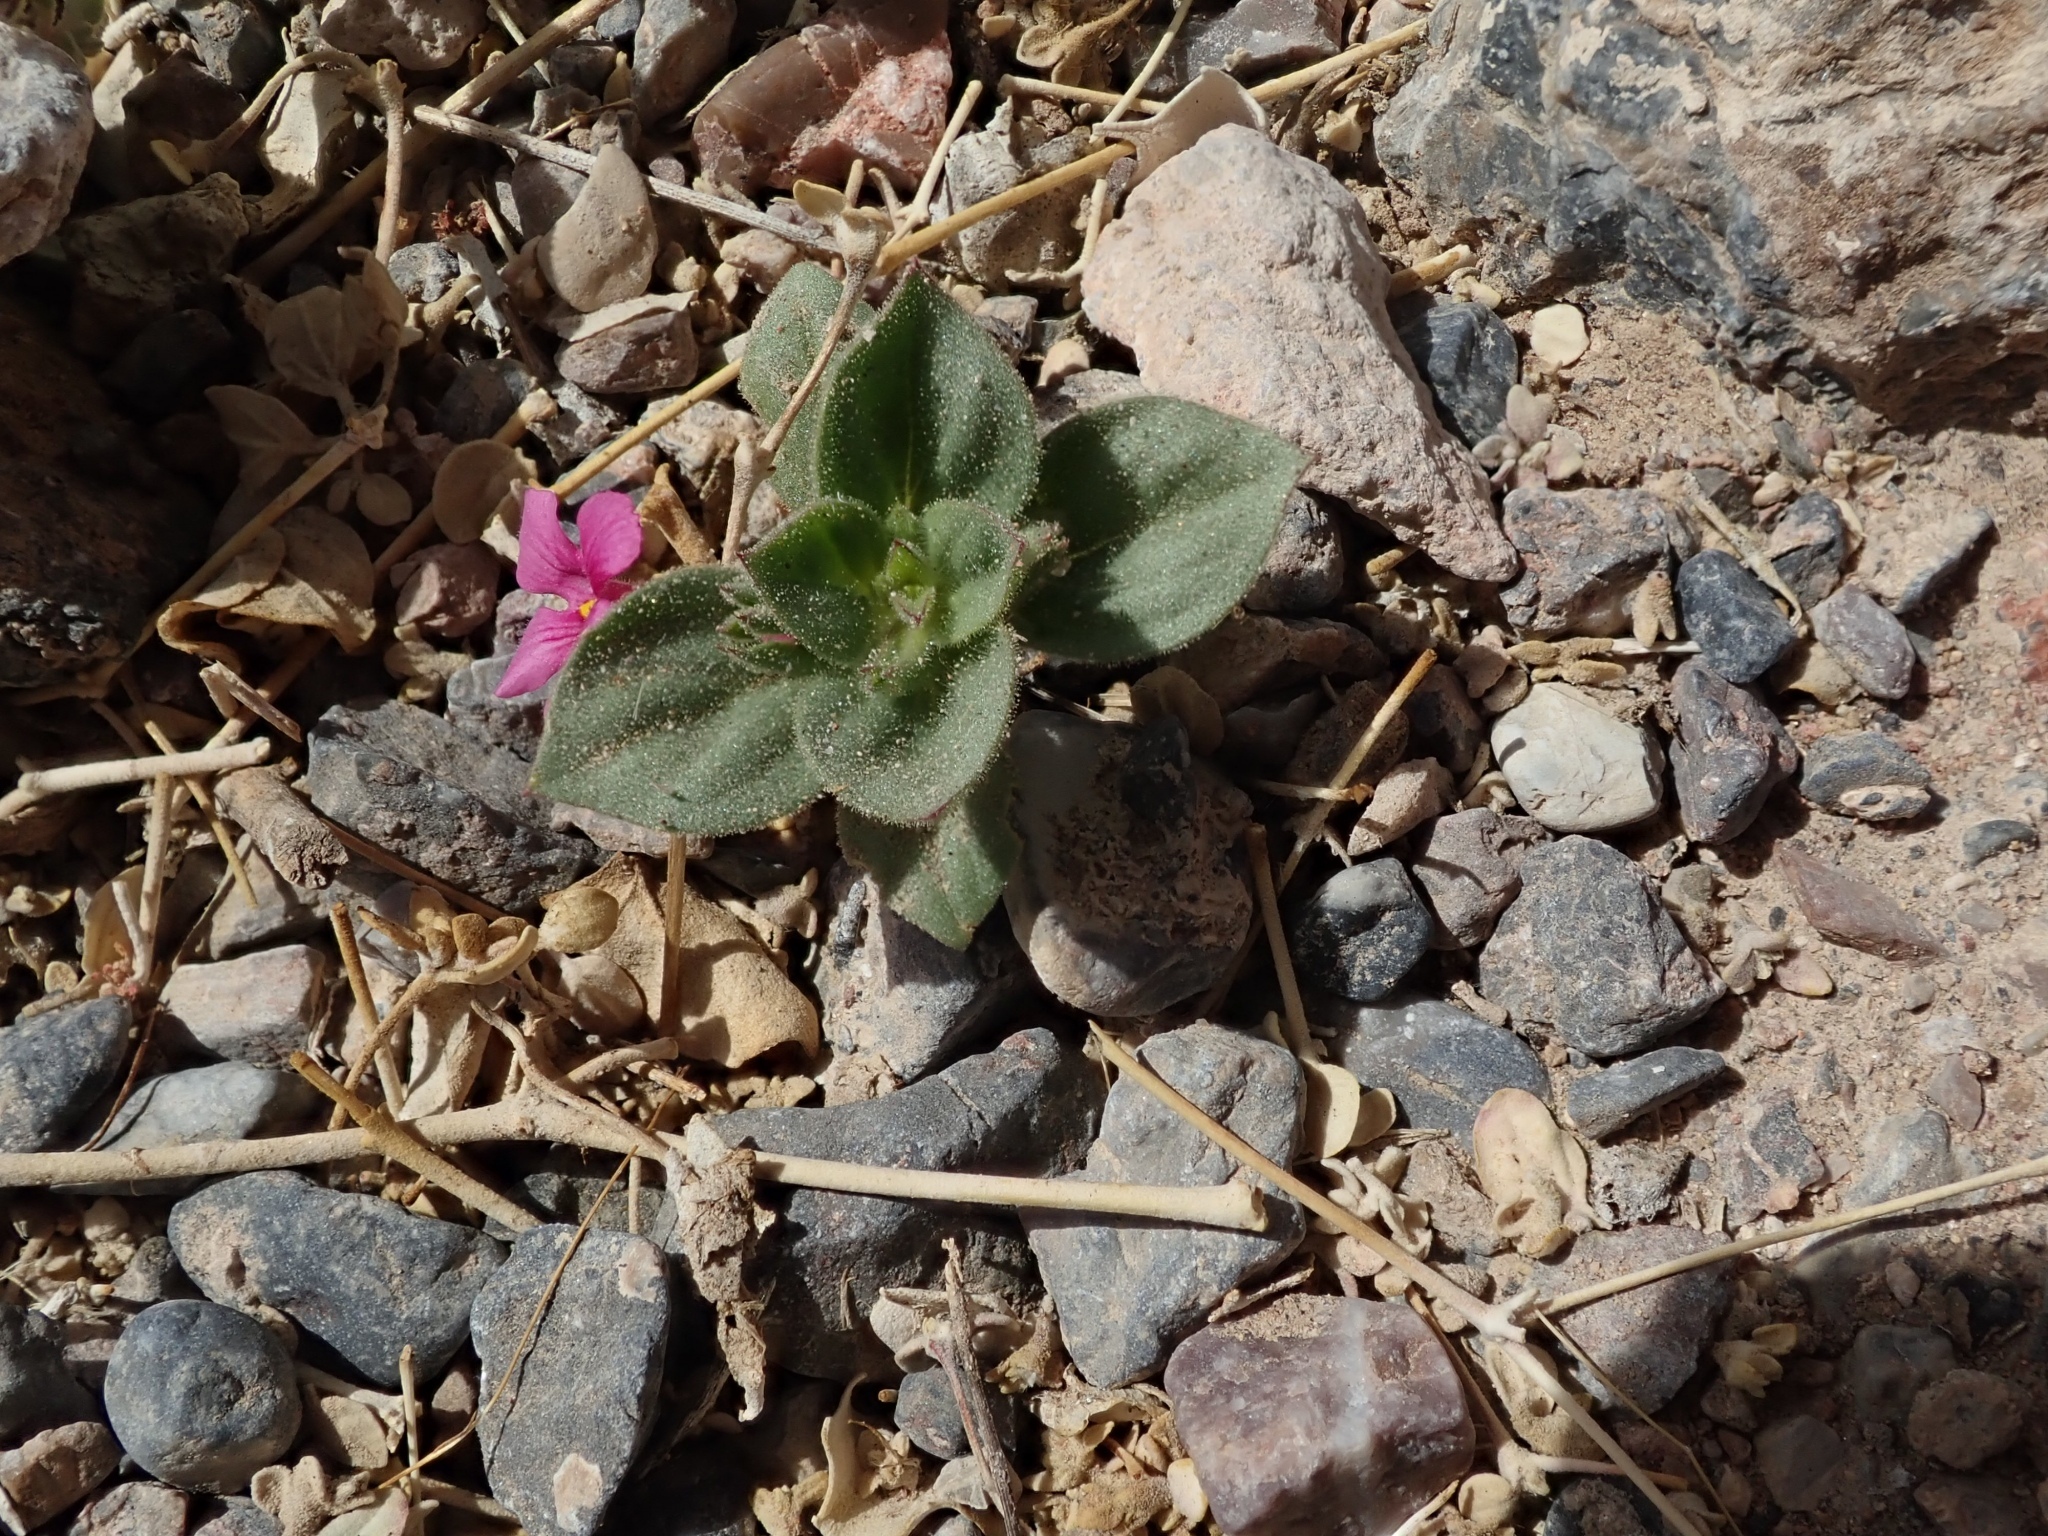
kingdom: Plantae
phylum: Tracheophyta
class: Magnoliopsida
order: Lamiales
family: Phrymaceae
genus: Diplacus
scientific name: Diplacus bigelovii
